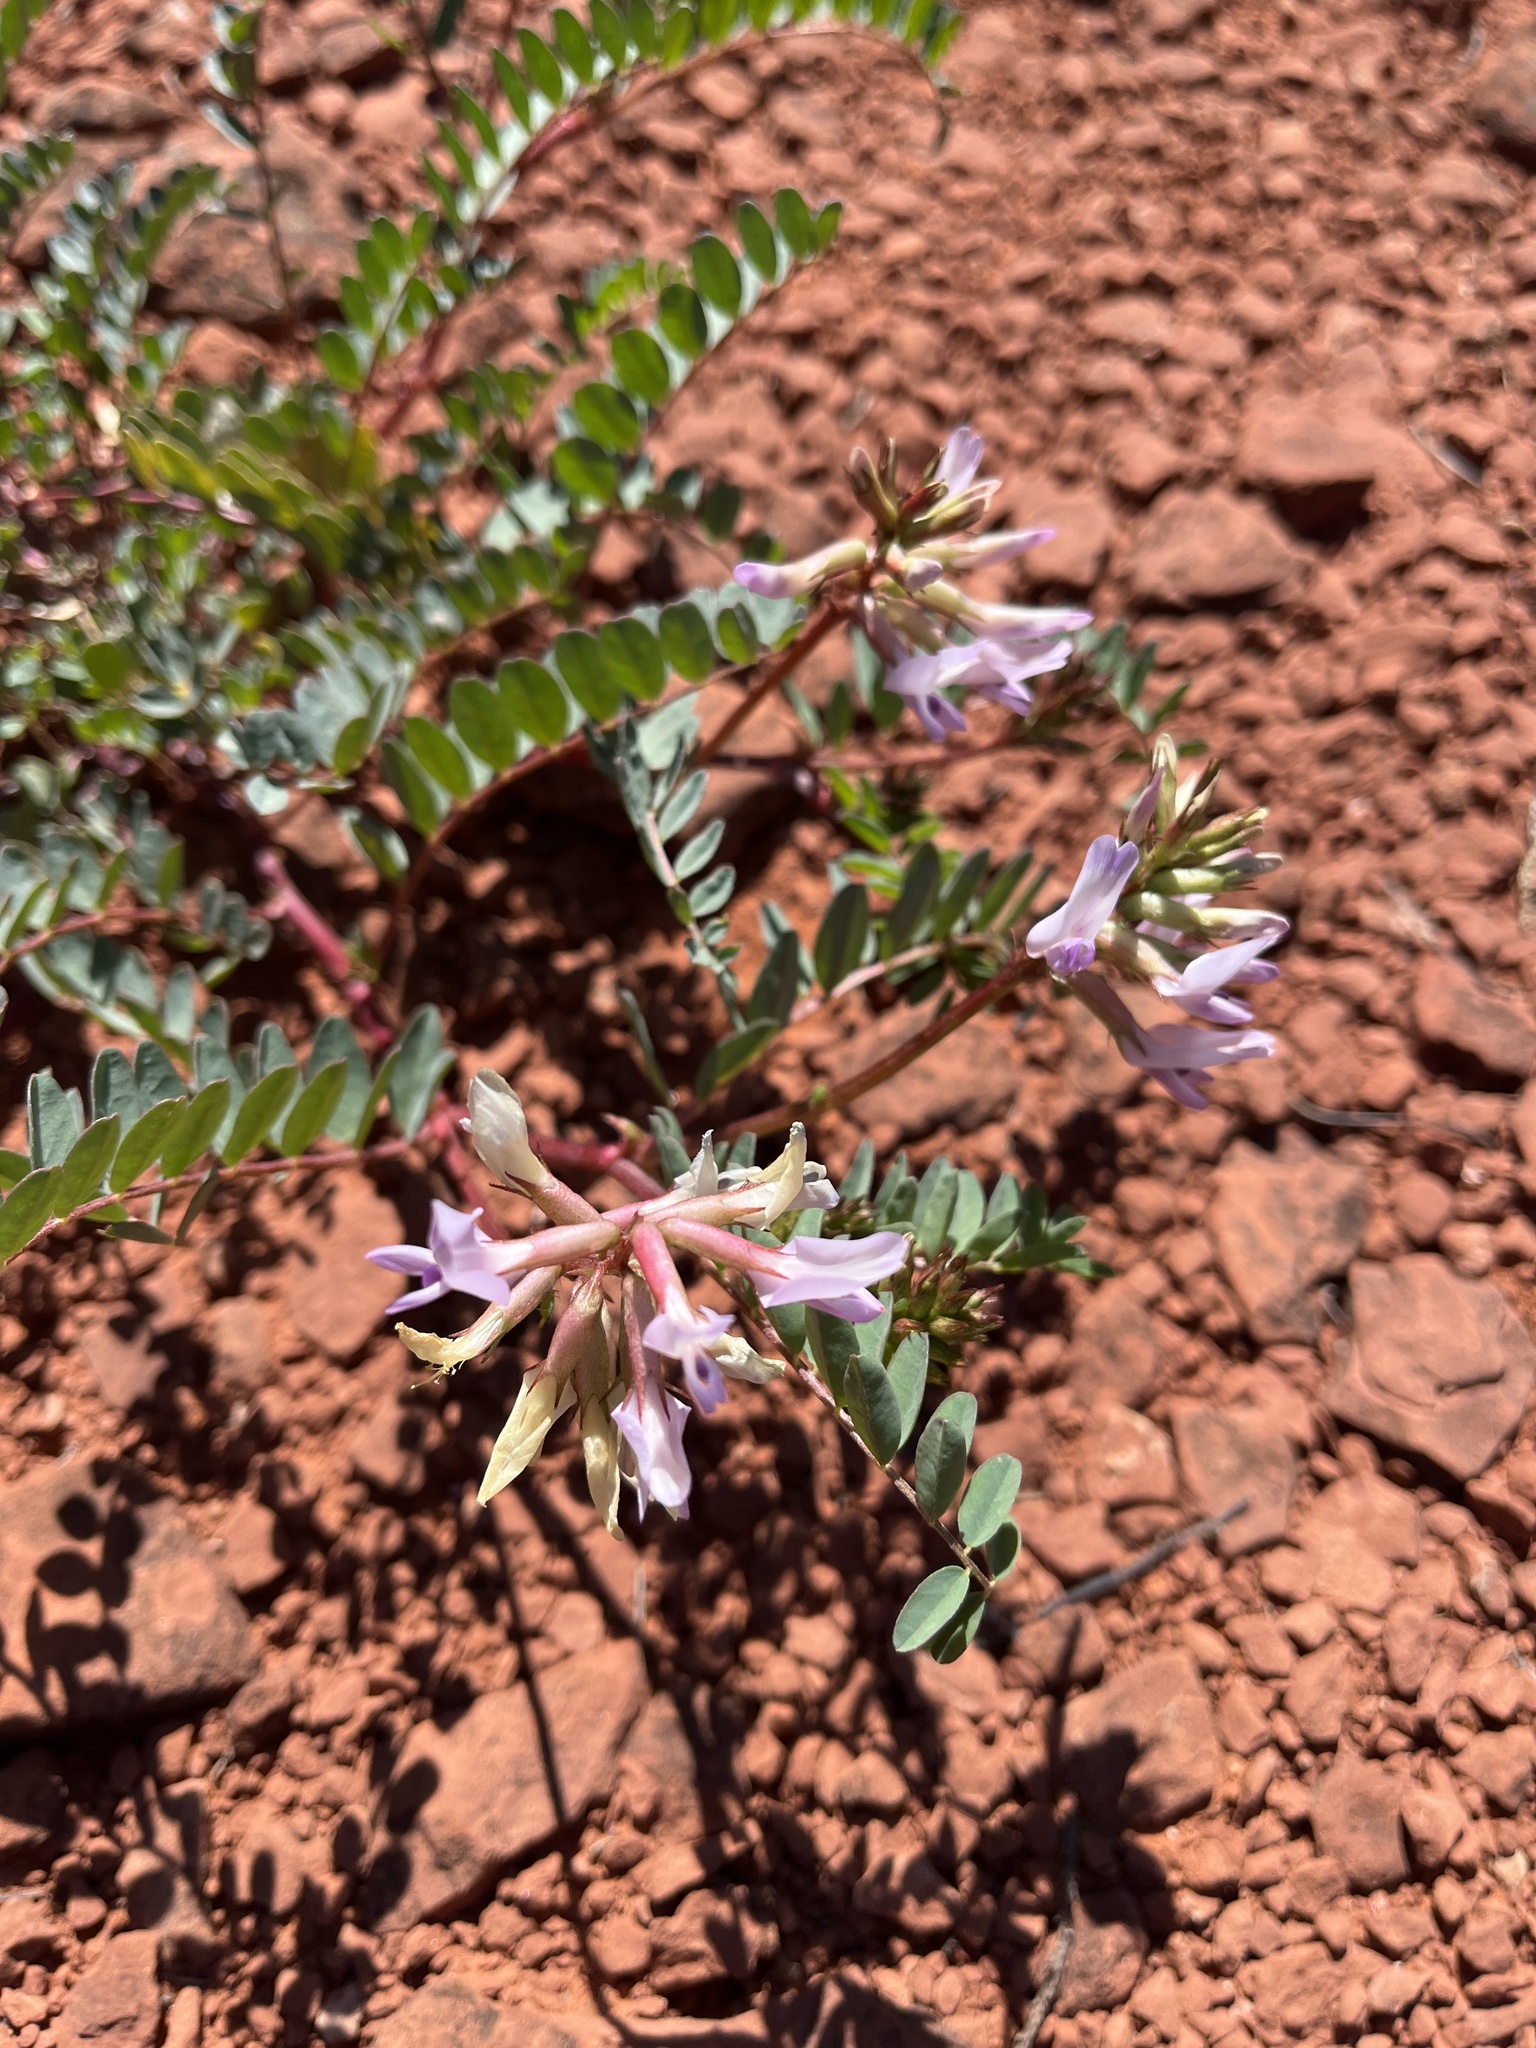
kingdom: Plantae
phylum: Tracheophyta
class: Magnoliopsida
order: Fabales
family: Fabaceae
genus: Astragalus
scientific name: Astragalus lentiginosus
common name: Freckled milkvetch
